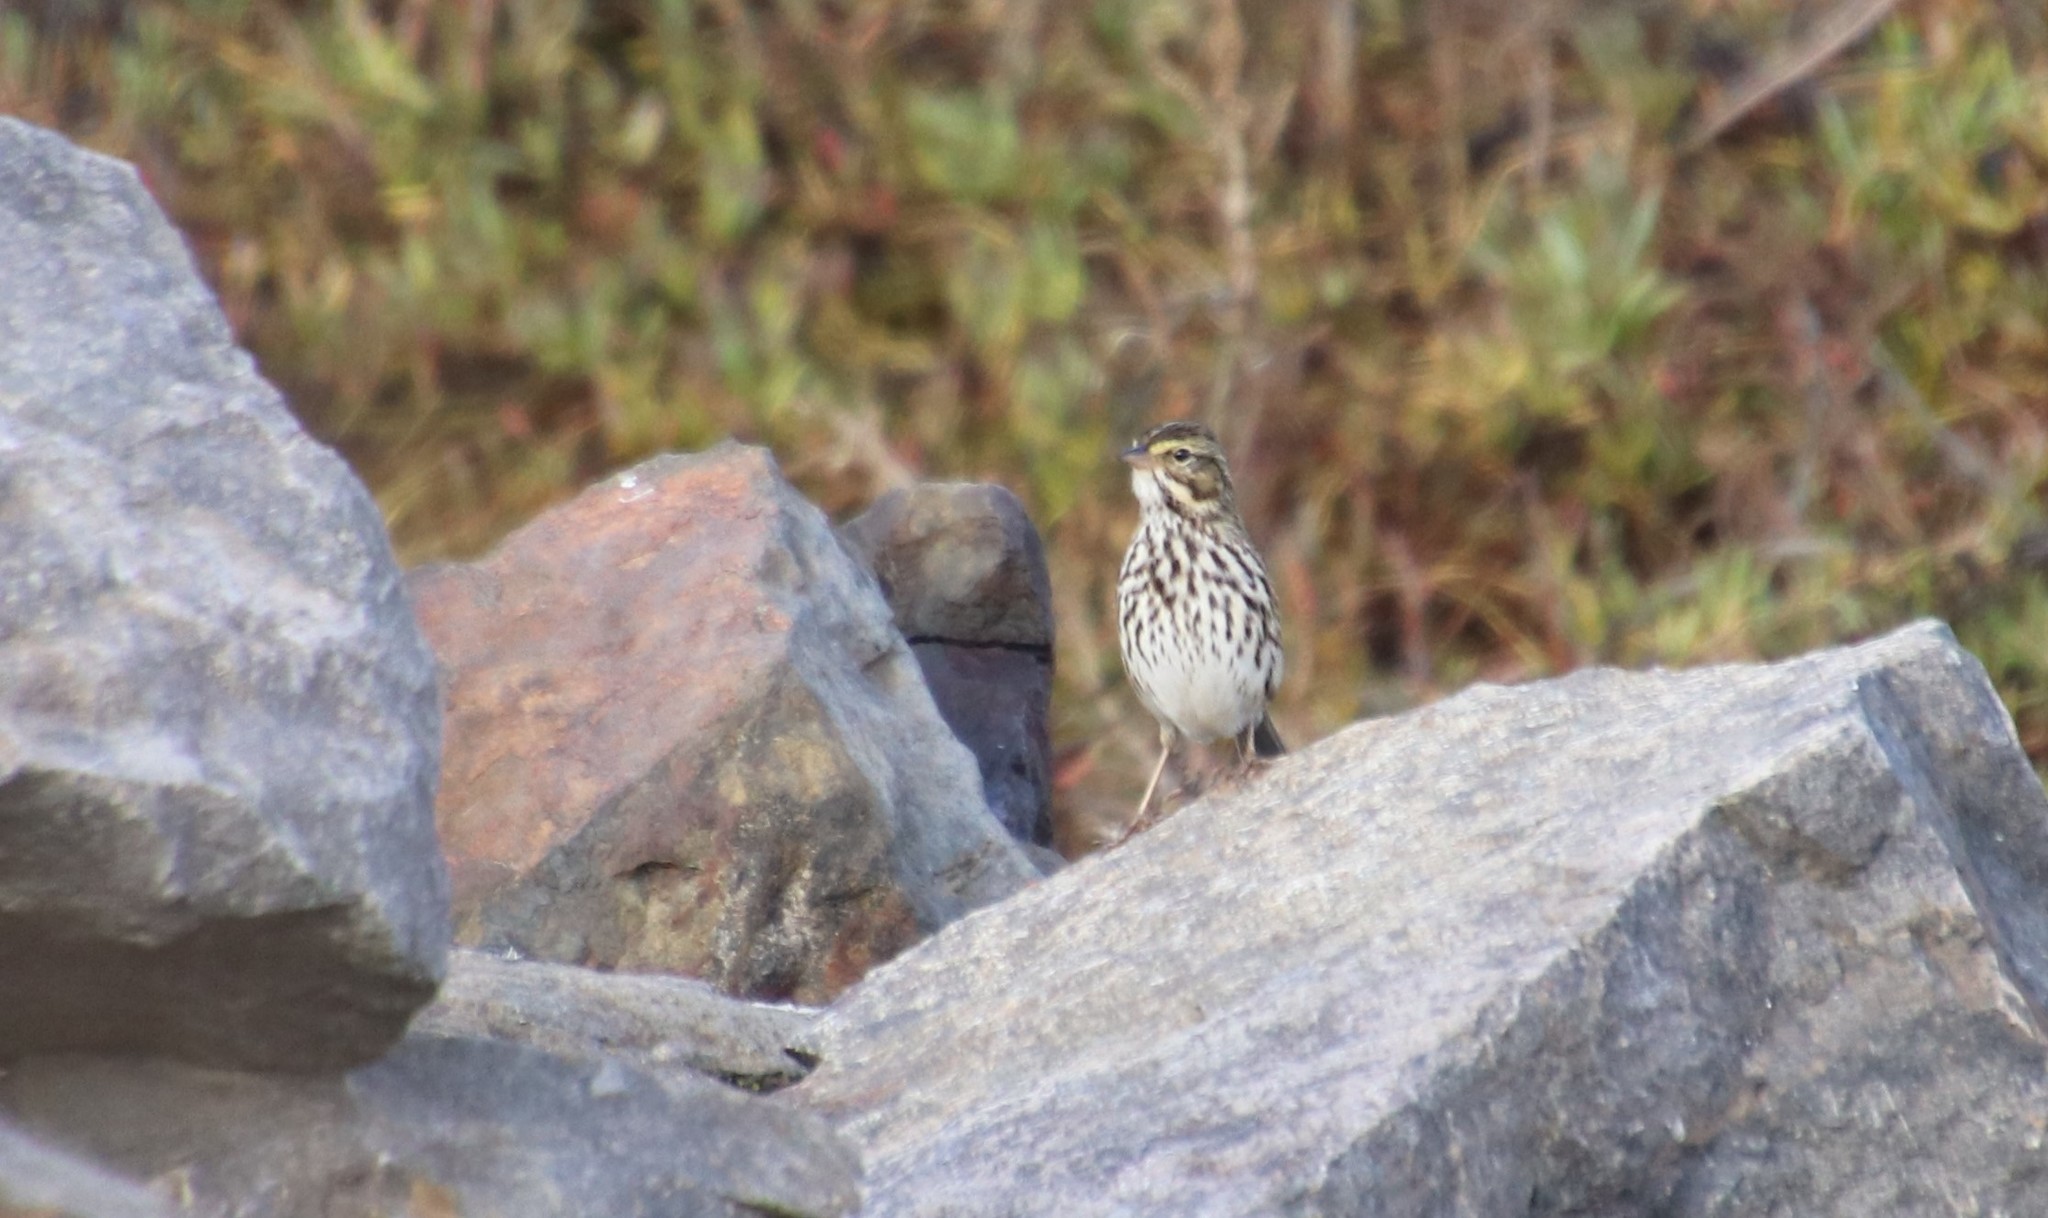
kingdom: Animalia
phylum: Chordata
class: Aves
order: Passeriformes
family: Passerellidae
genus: Passerculus
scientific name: Passerculus sandwichensis
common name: Savannah sparrow
